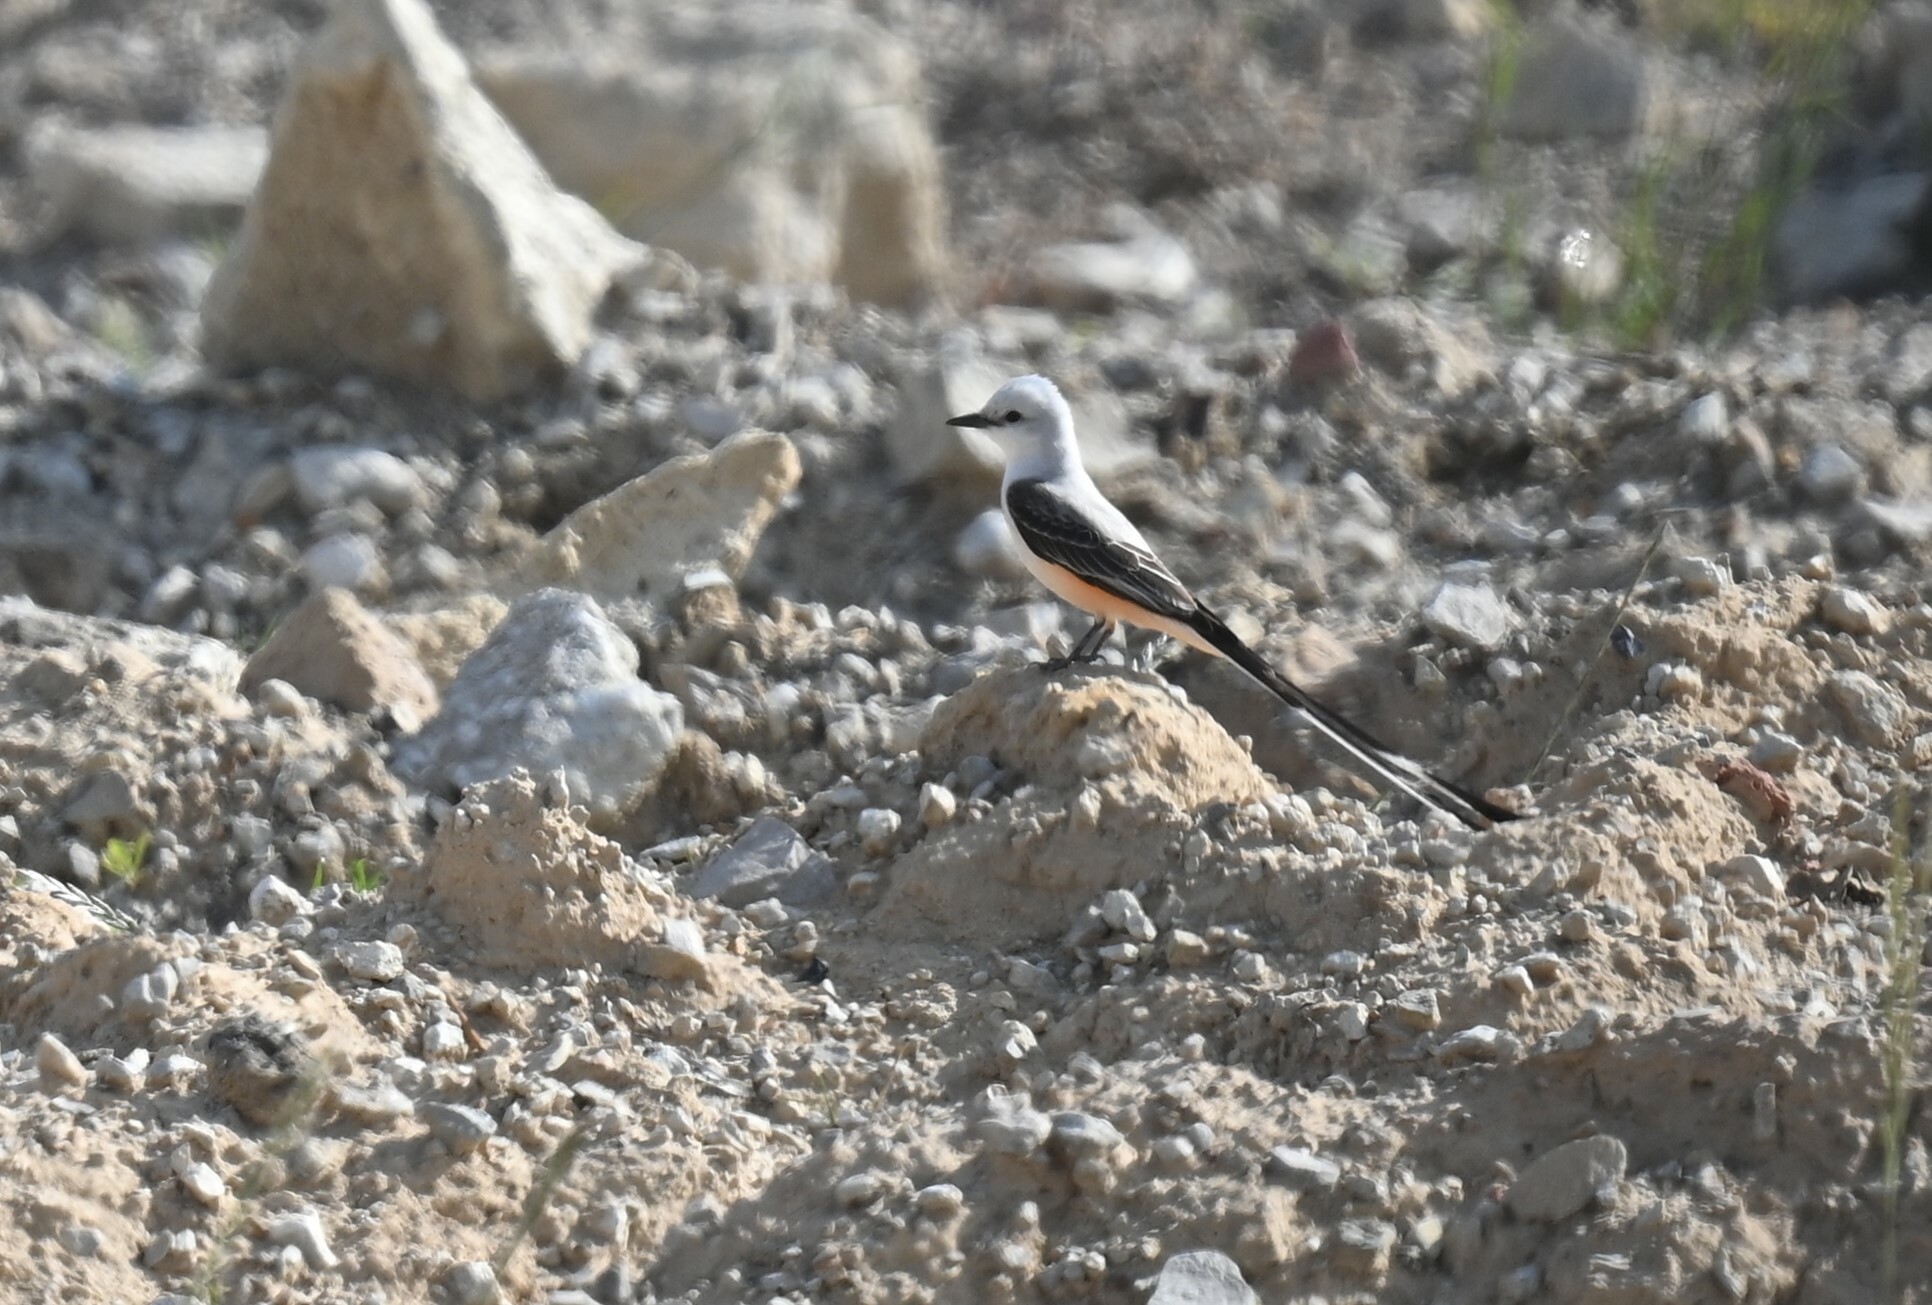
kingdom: Animalia
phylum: Chordata
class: Aves
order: Passeriformes
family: Tyrannidae
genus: Tyrannus
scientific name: Tyrannus forficatus
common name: Scissor-tailed flycatcher
